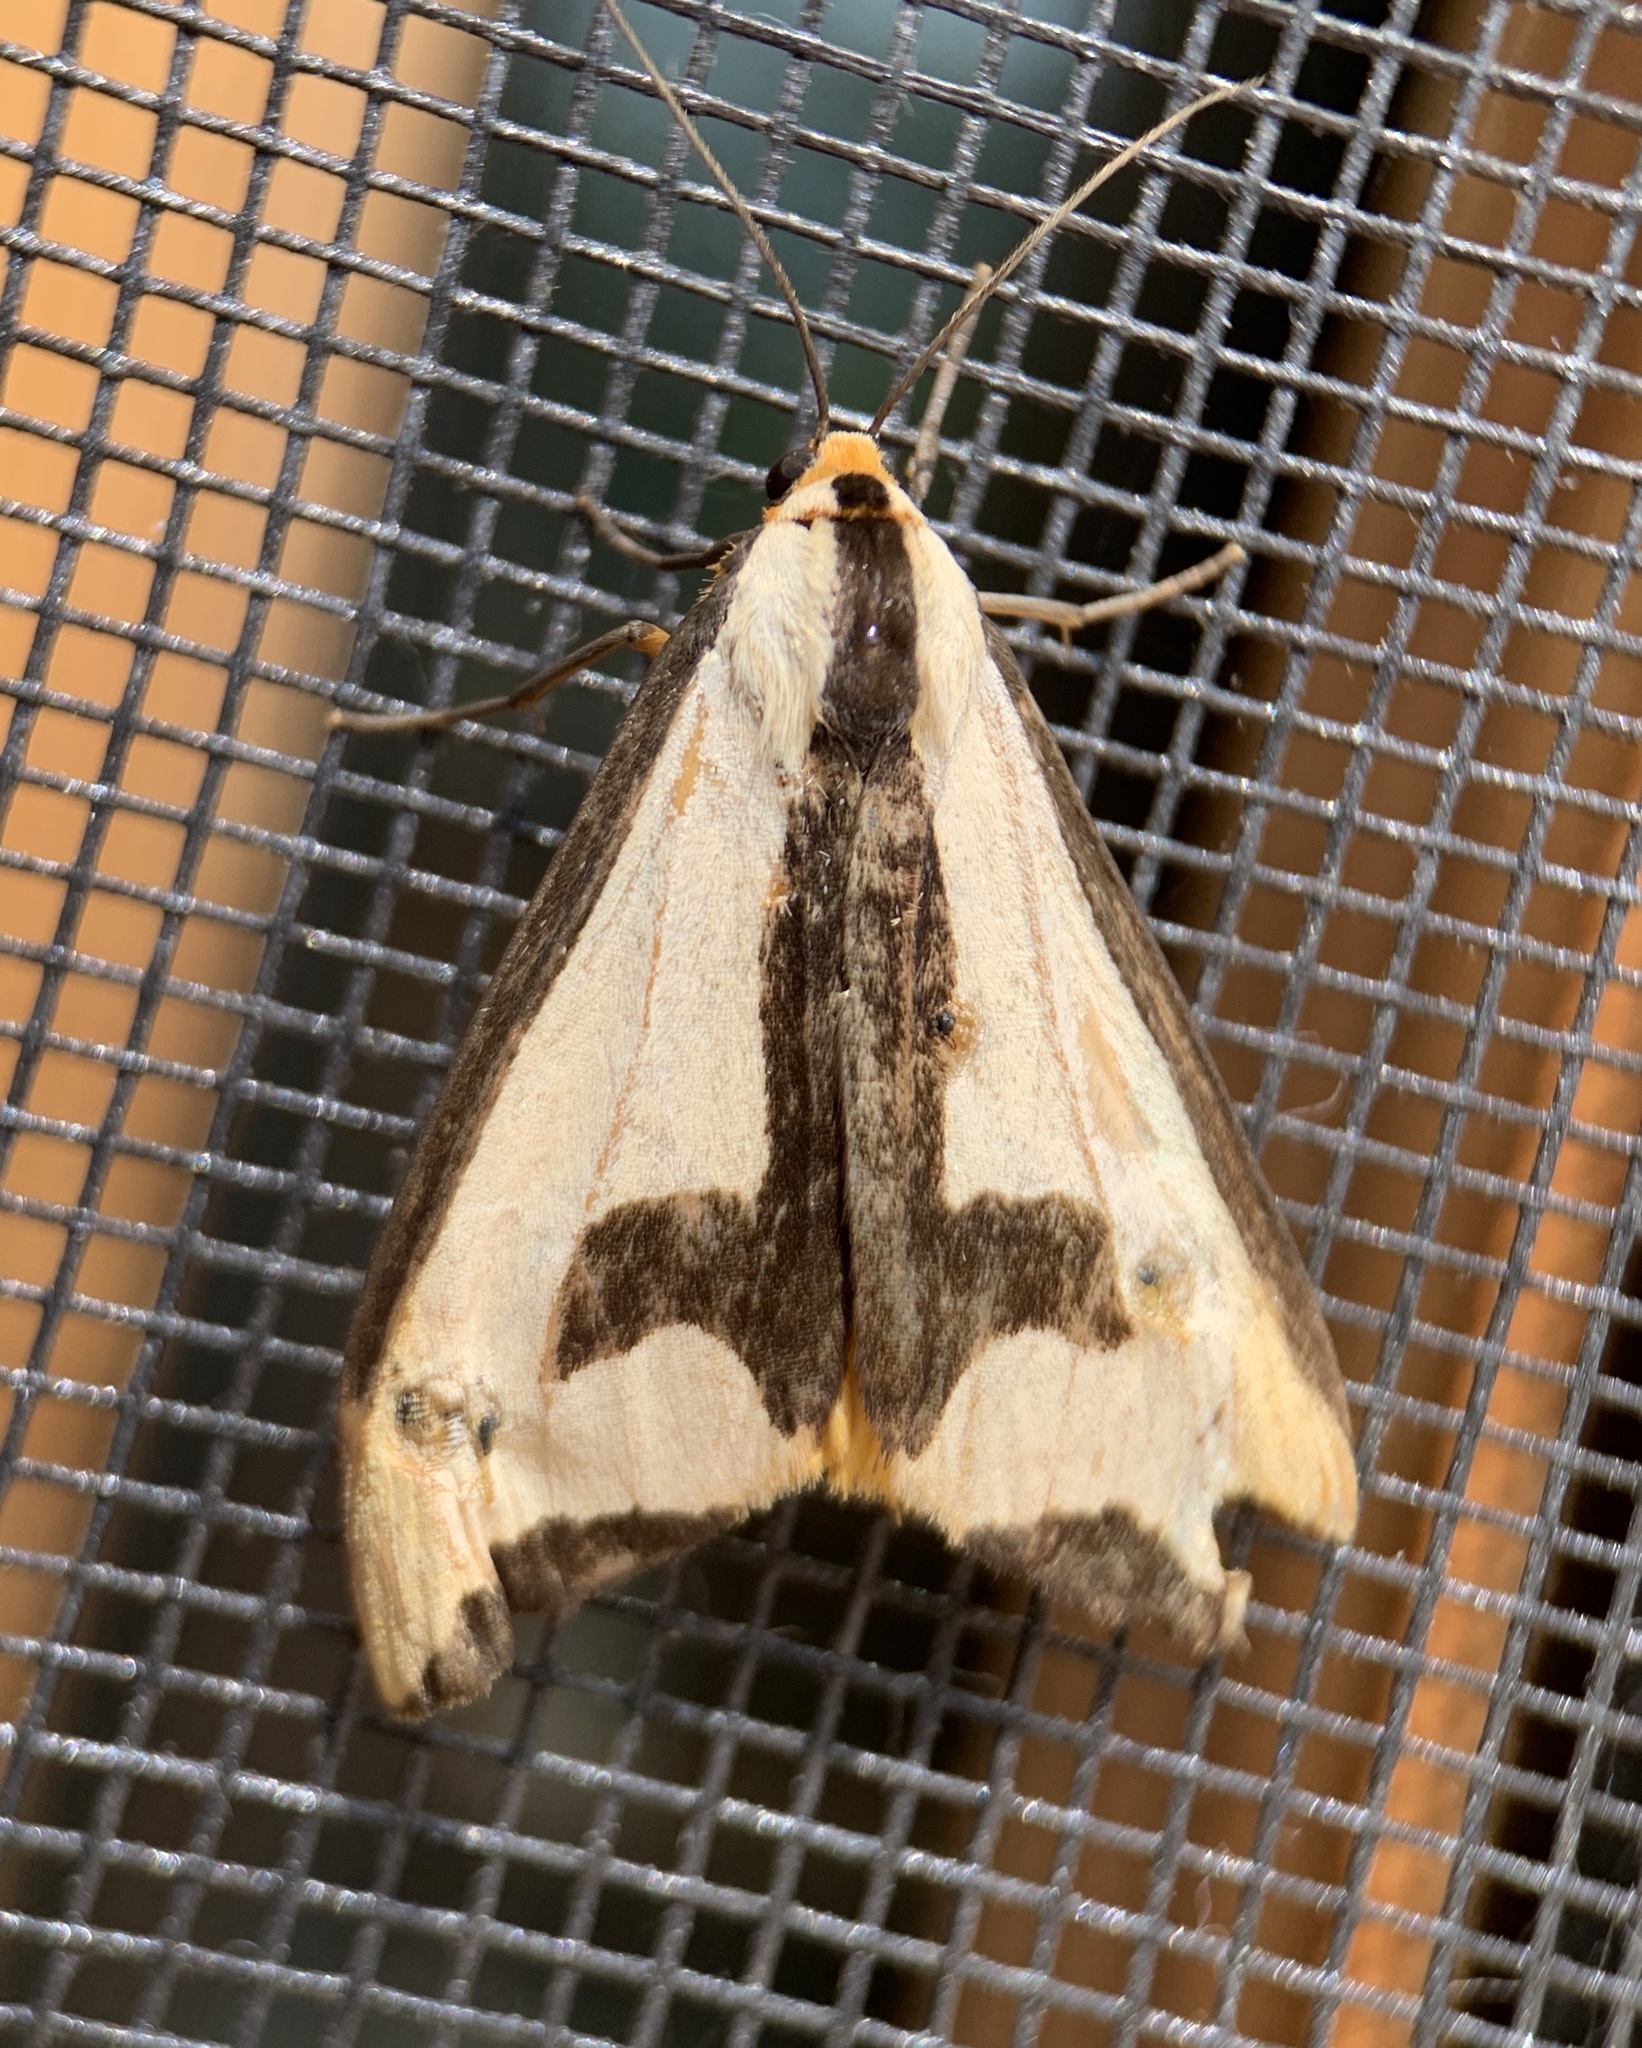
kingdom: Animalia
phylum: Arthropoda
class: Insecta
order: Lepidoptera
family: Erebidae
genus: Haploa
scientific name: Haploa clymene
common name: Clymene moth
